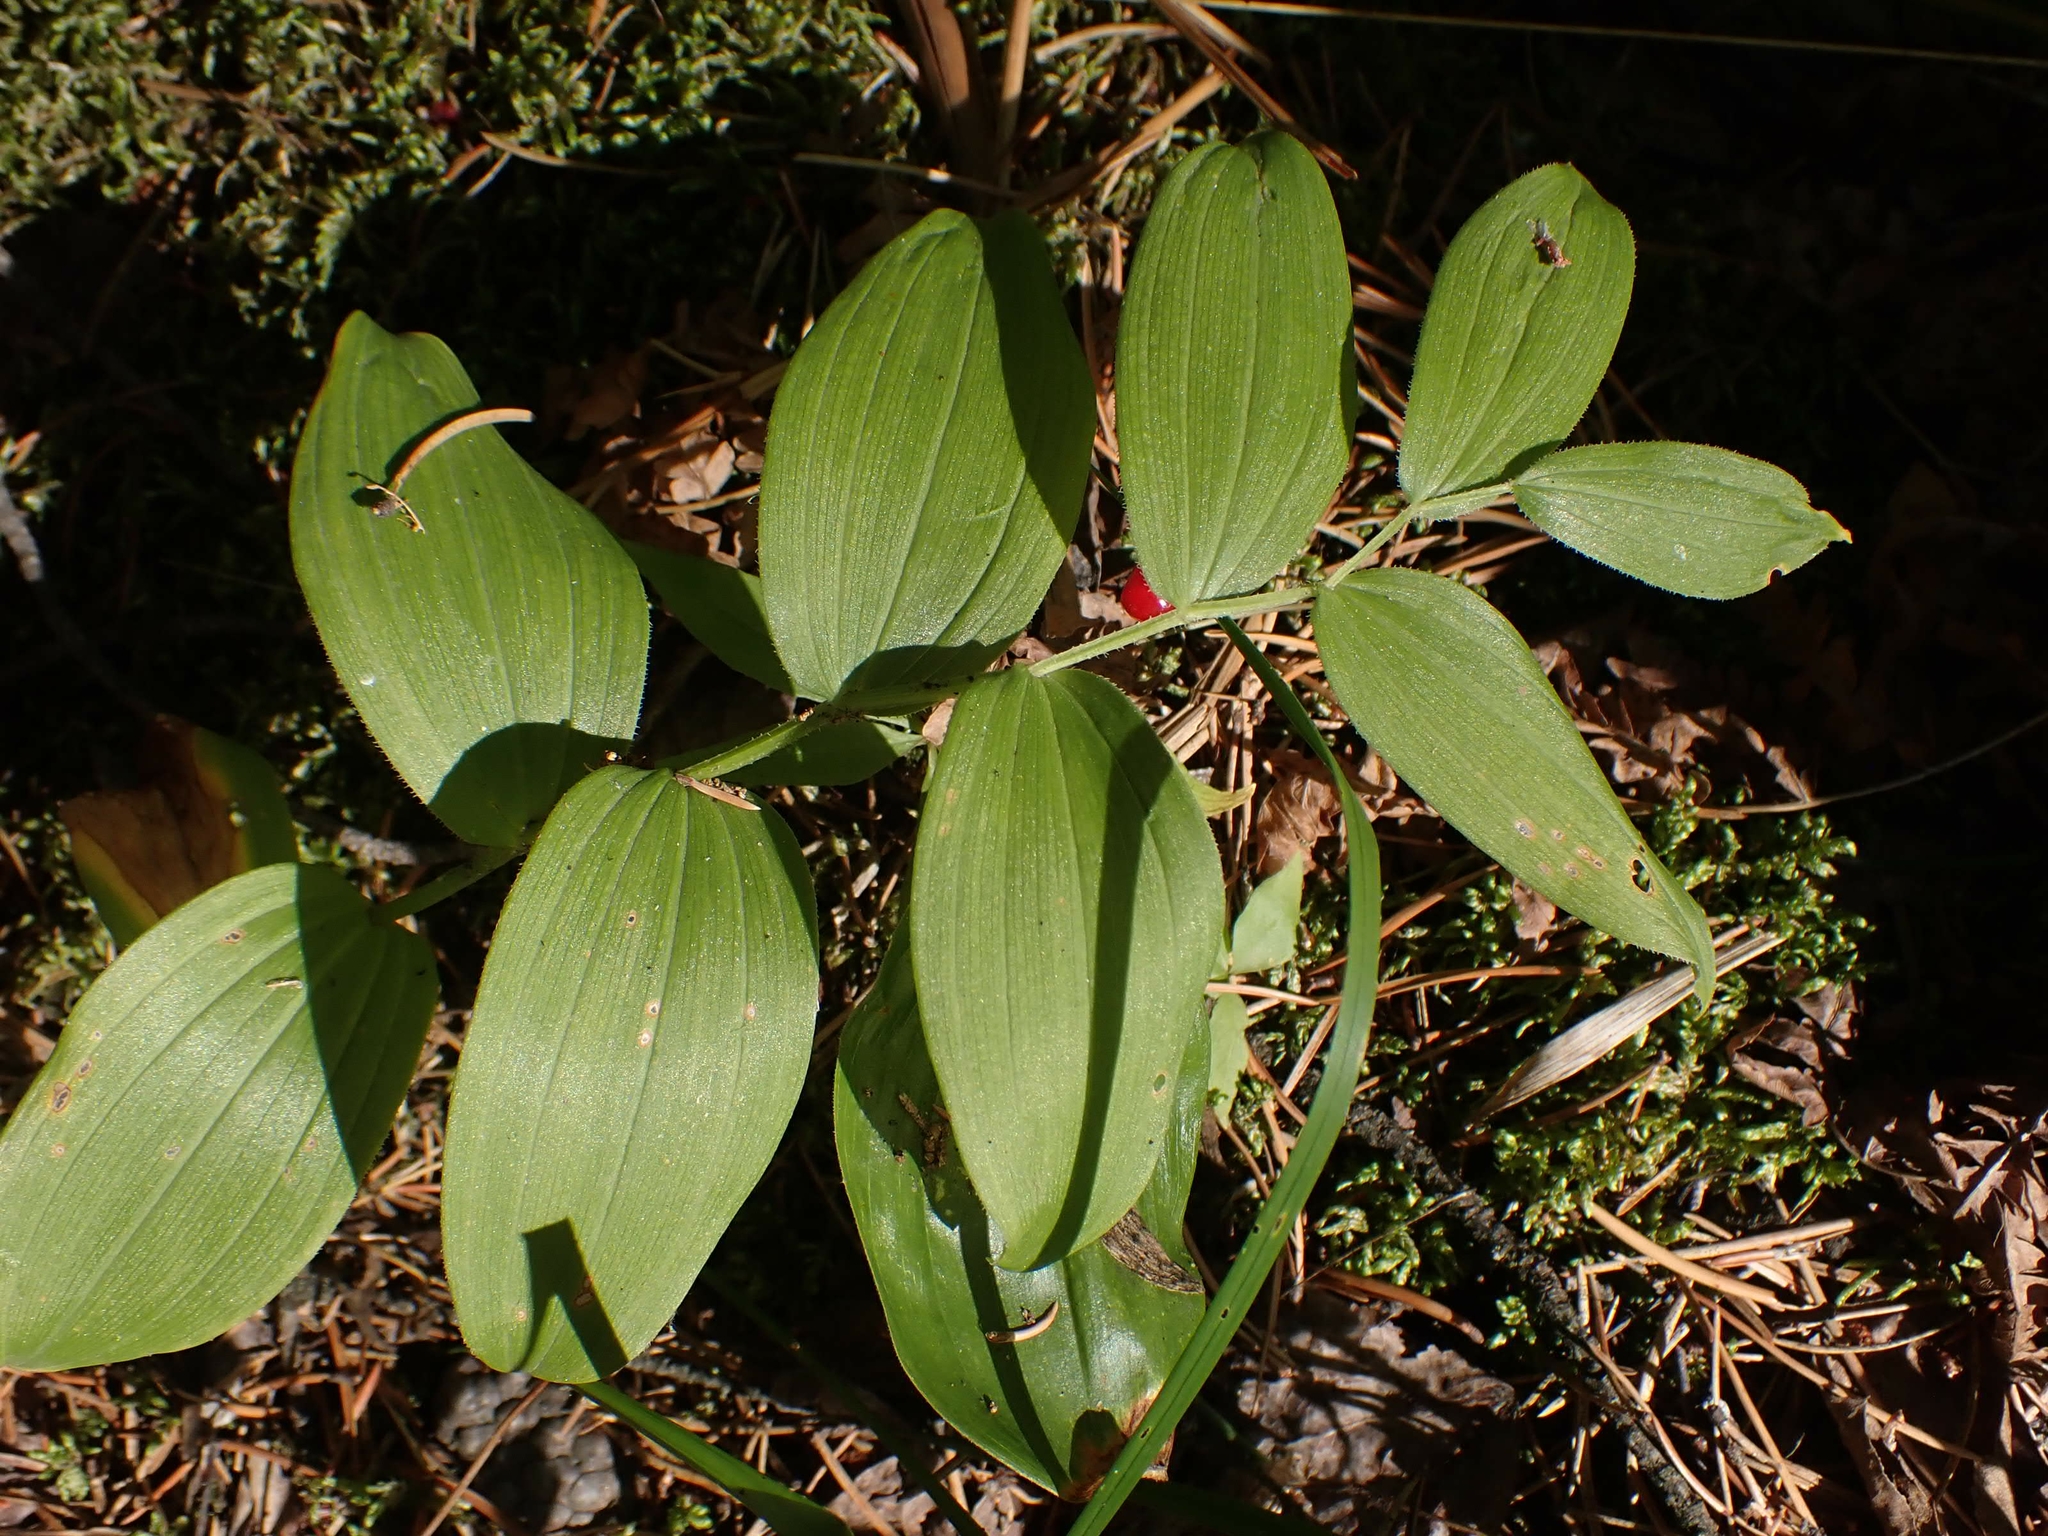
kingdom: Plantae
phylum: Tracheophyta
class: Liliopsida
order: Liliales
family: Liliaceae
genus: Streptopus
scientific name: Streptopus lanceolatus
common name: Rose mandarin
